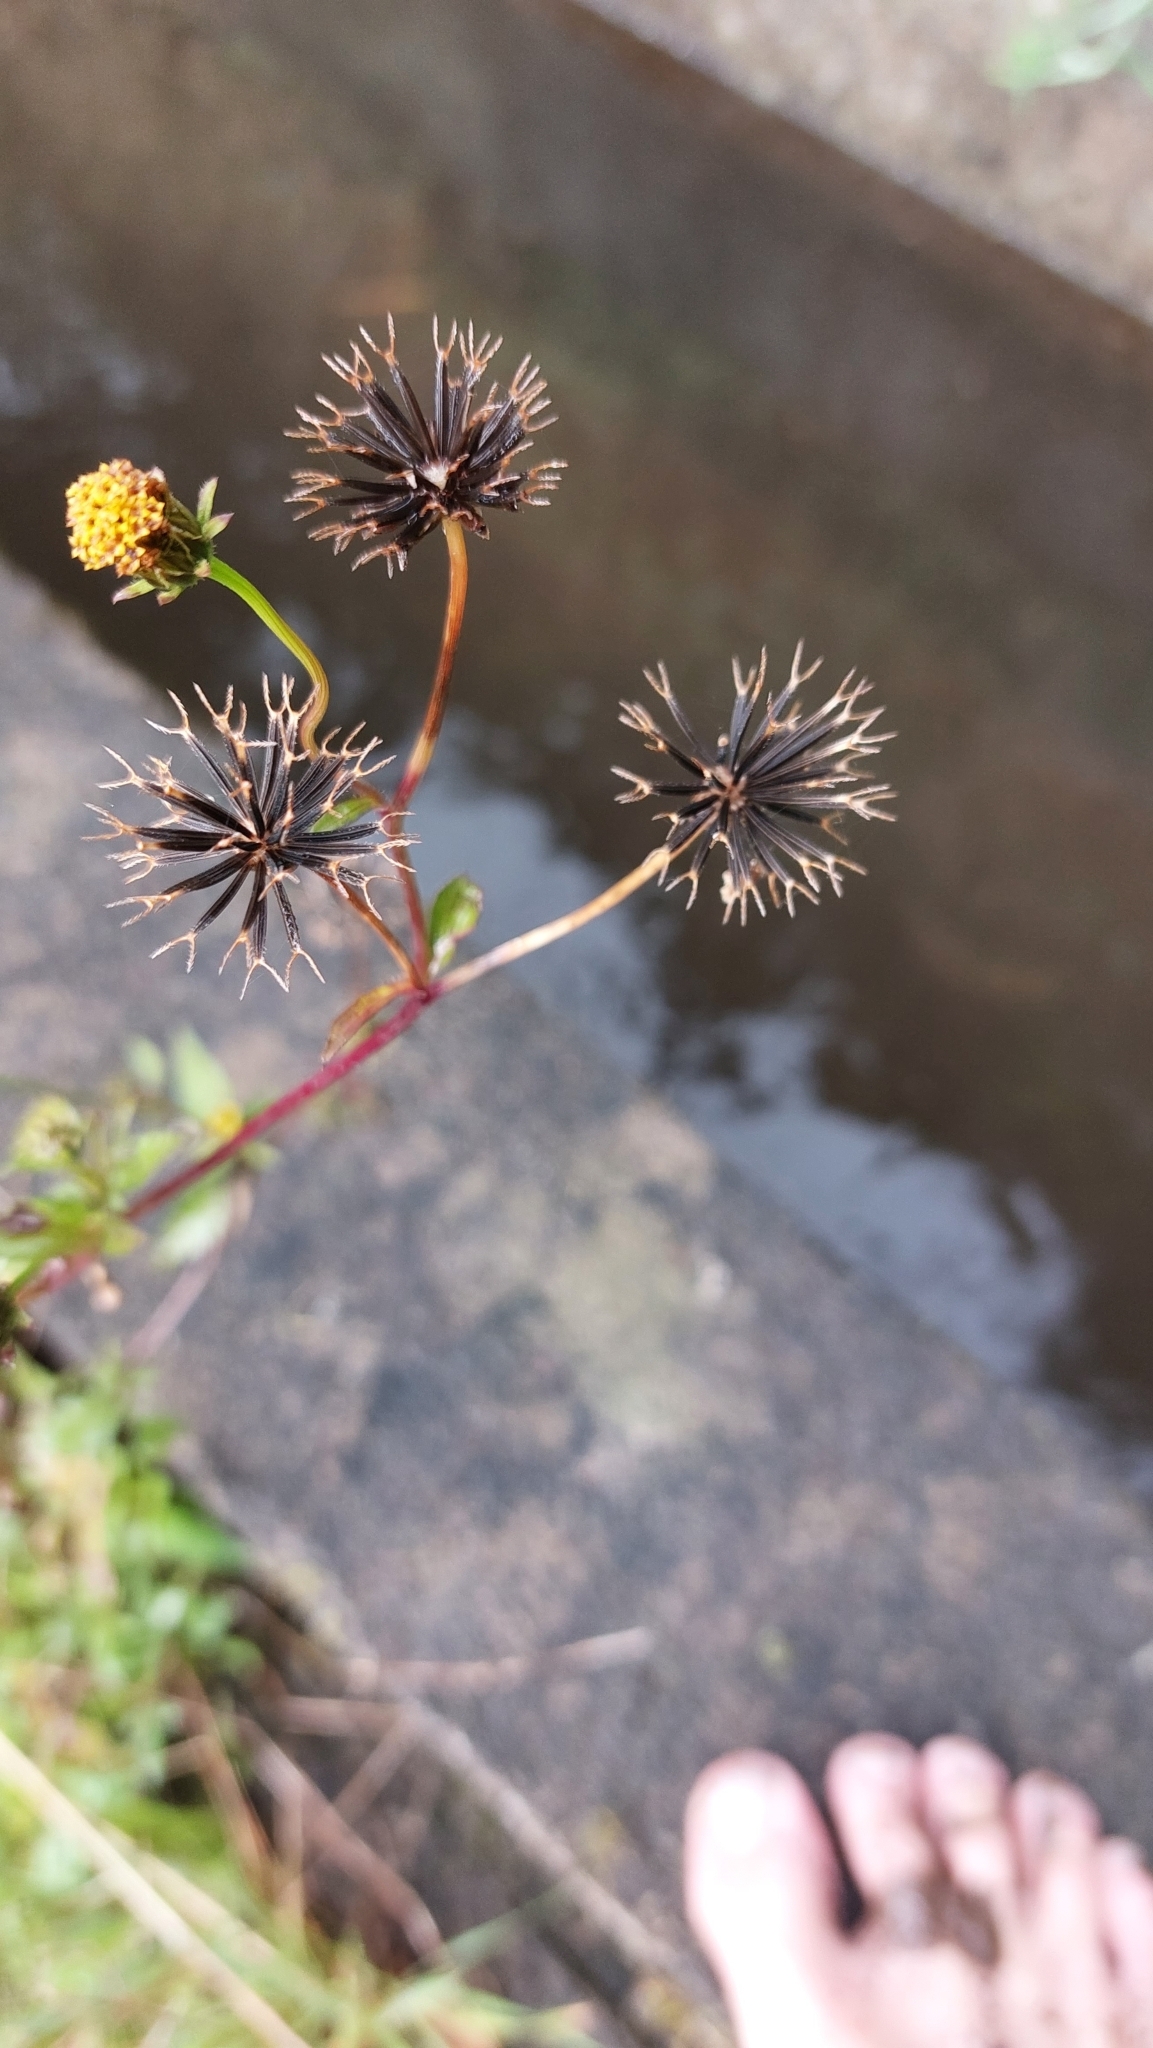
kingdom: Plantae
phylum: Tracheophyta
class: Magnoliopsida
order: Asterales
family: Asteraceae
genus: Bidens
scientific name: Bidens pilosa
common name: Black-jack
